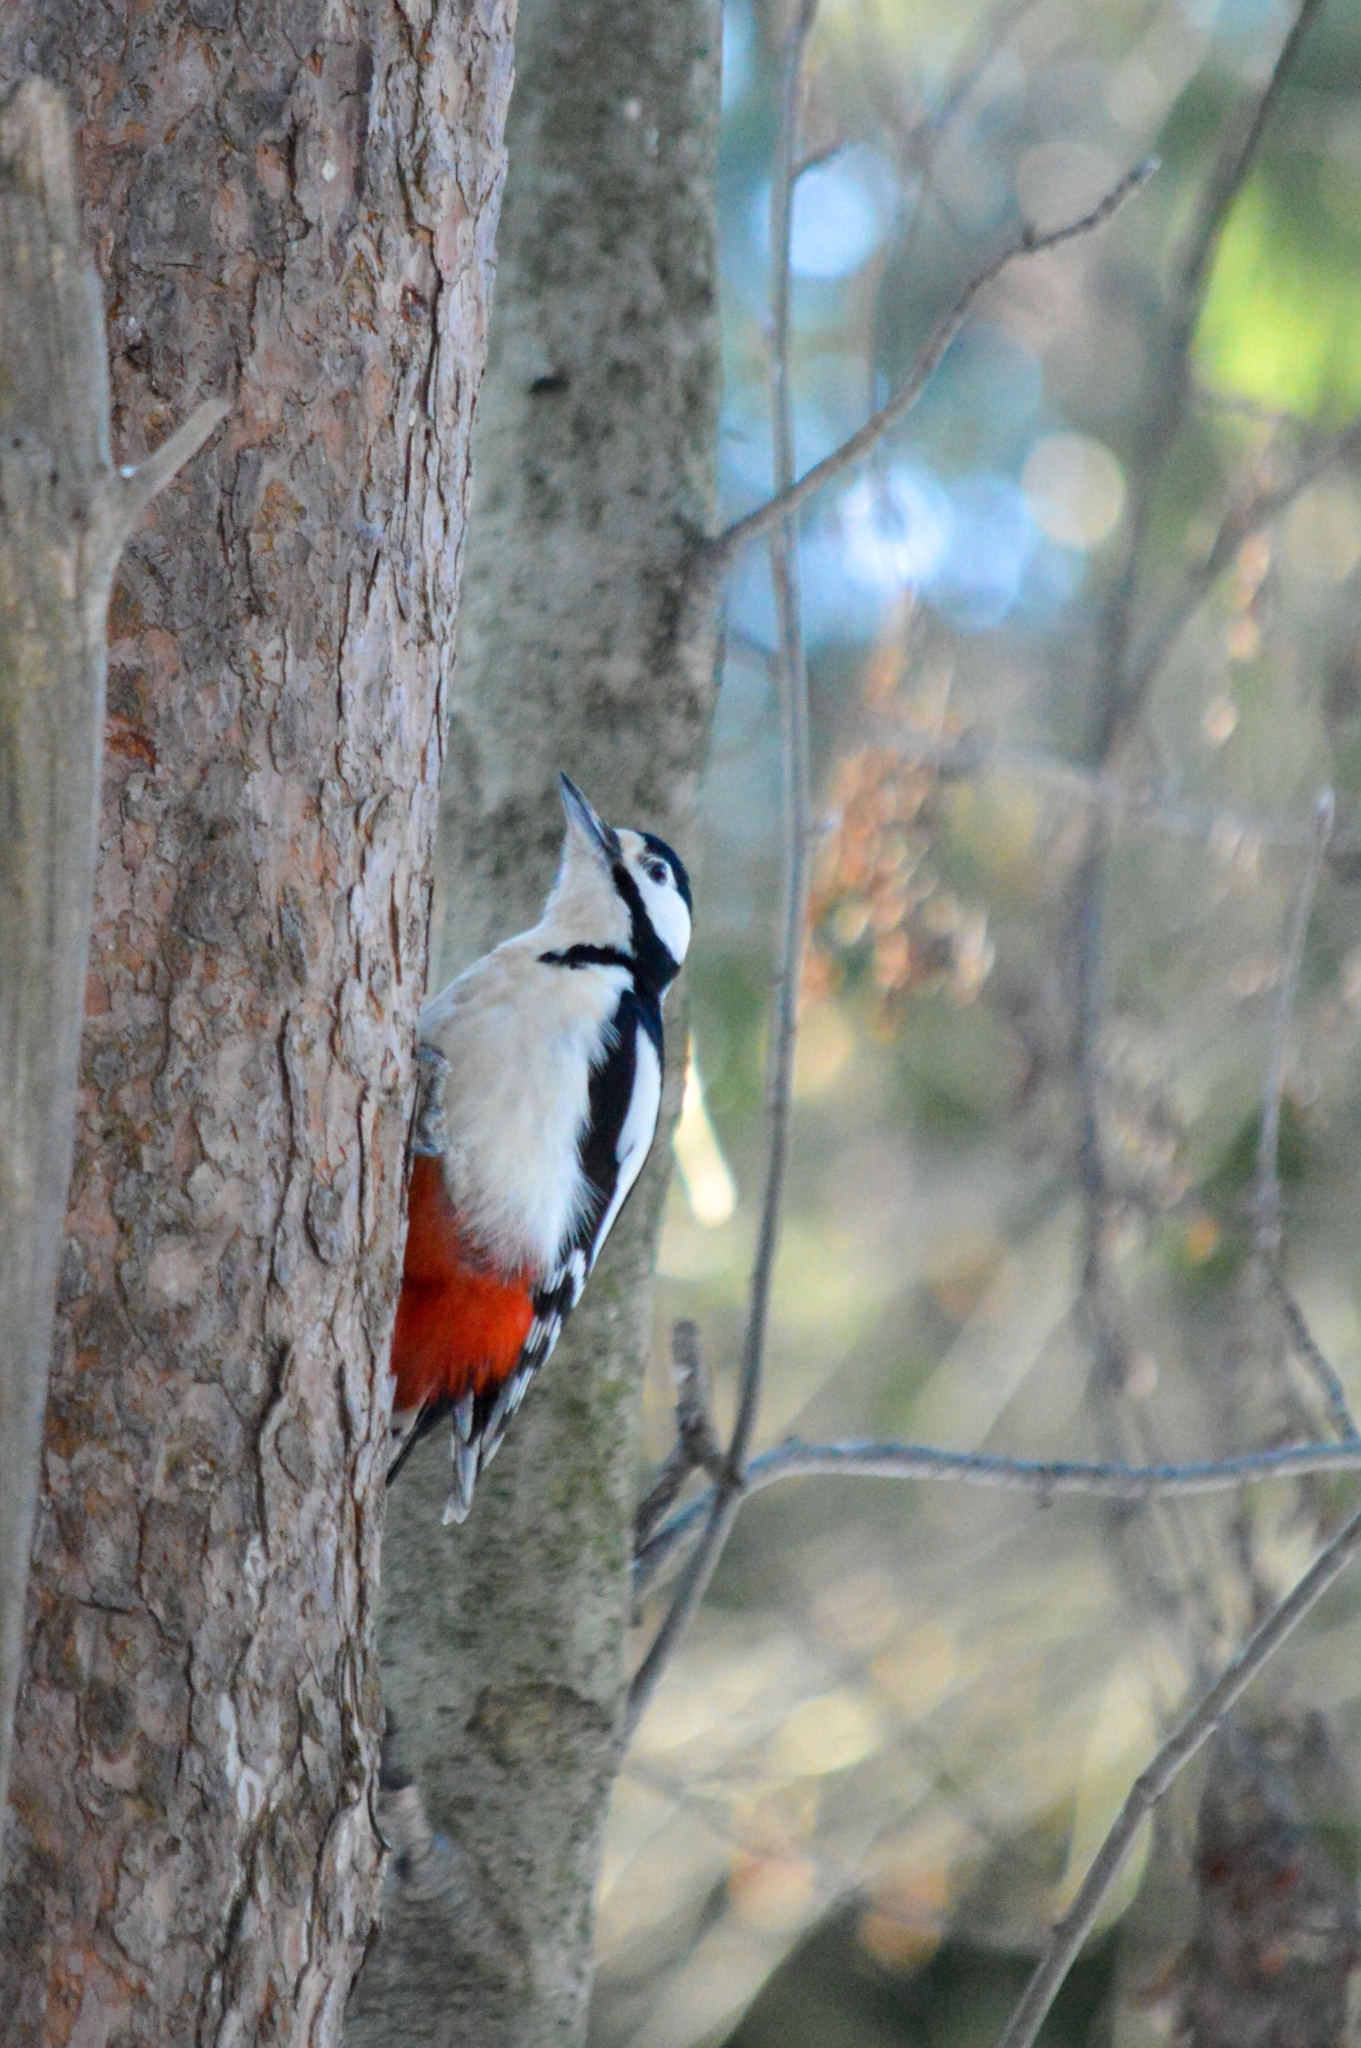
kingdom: Animalia
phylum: Chordata
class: Aves
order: Piciformes
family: Picidae
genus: Dendrocopos
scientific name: Dendrocopos major
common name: Great spotted woodpecker
